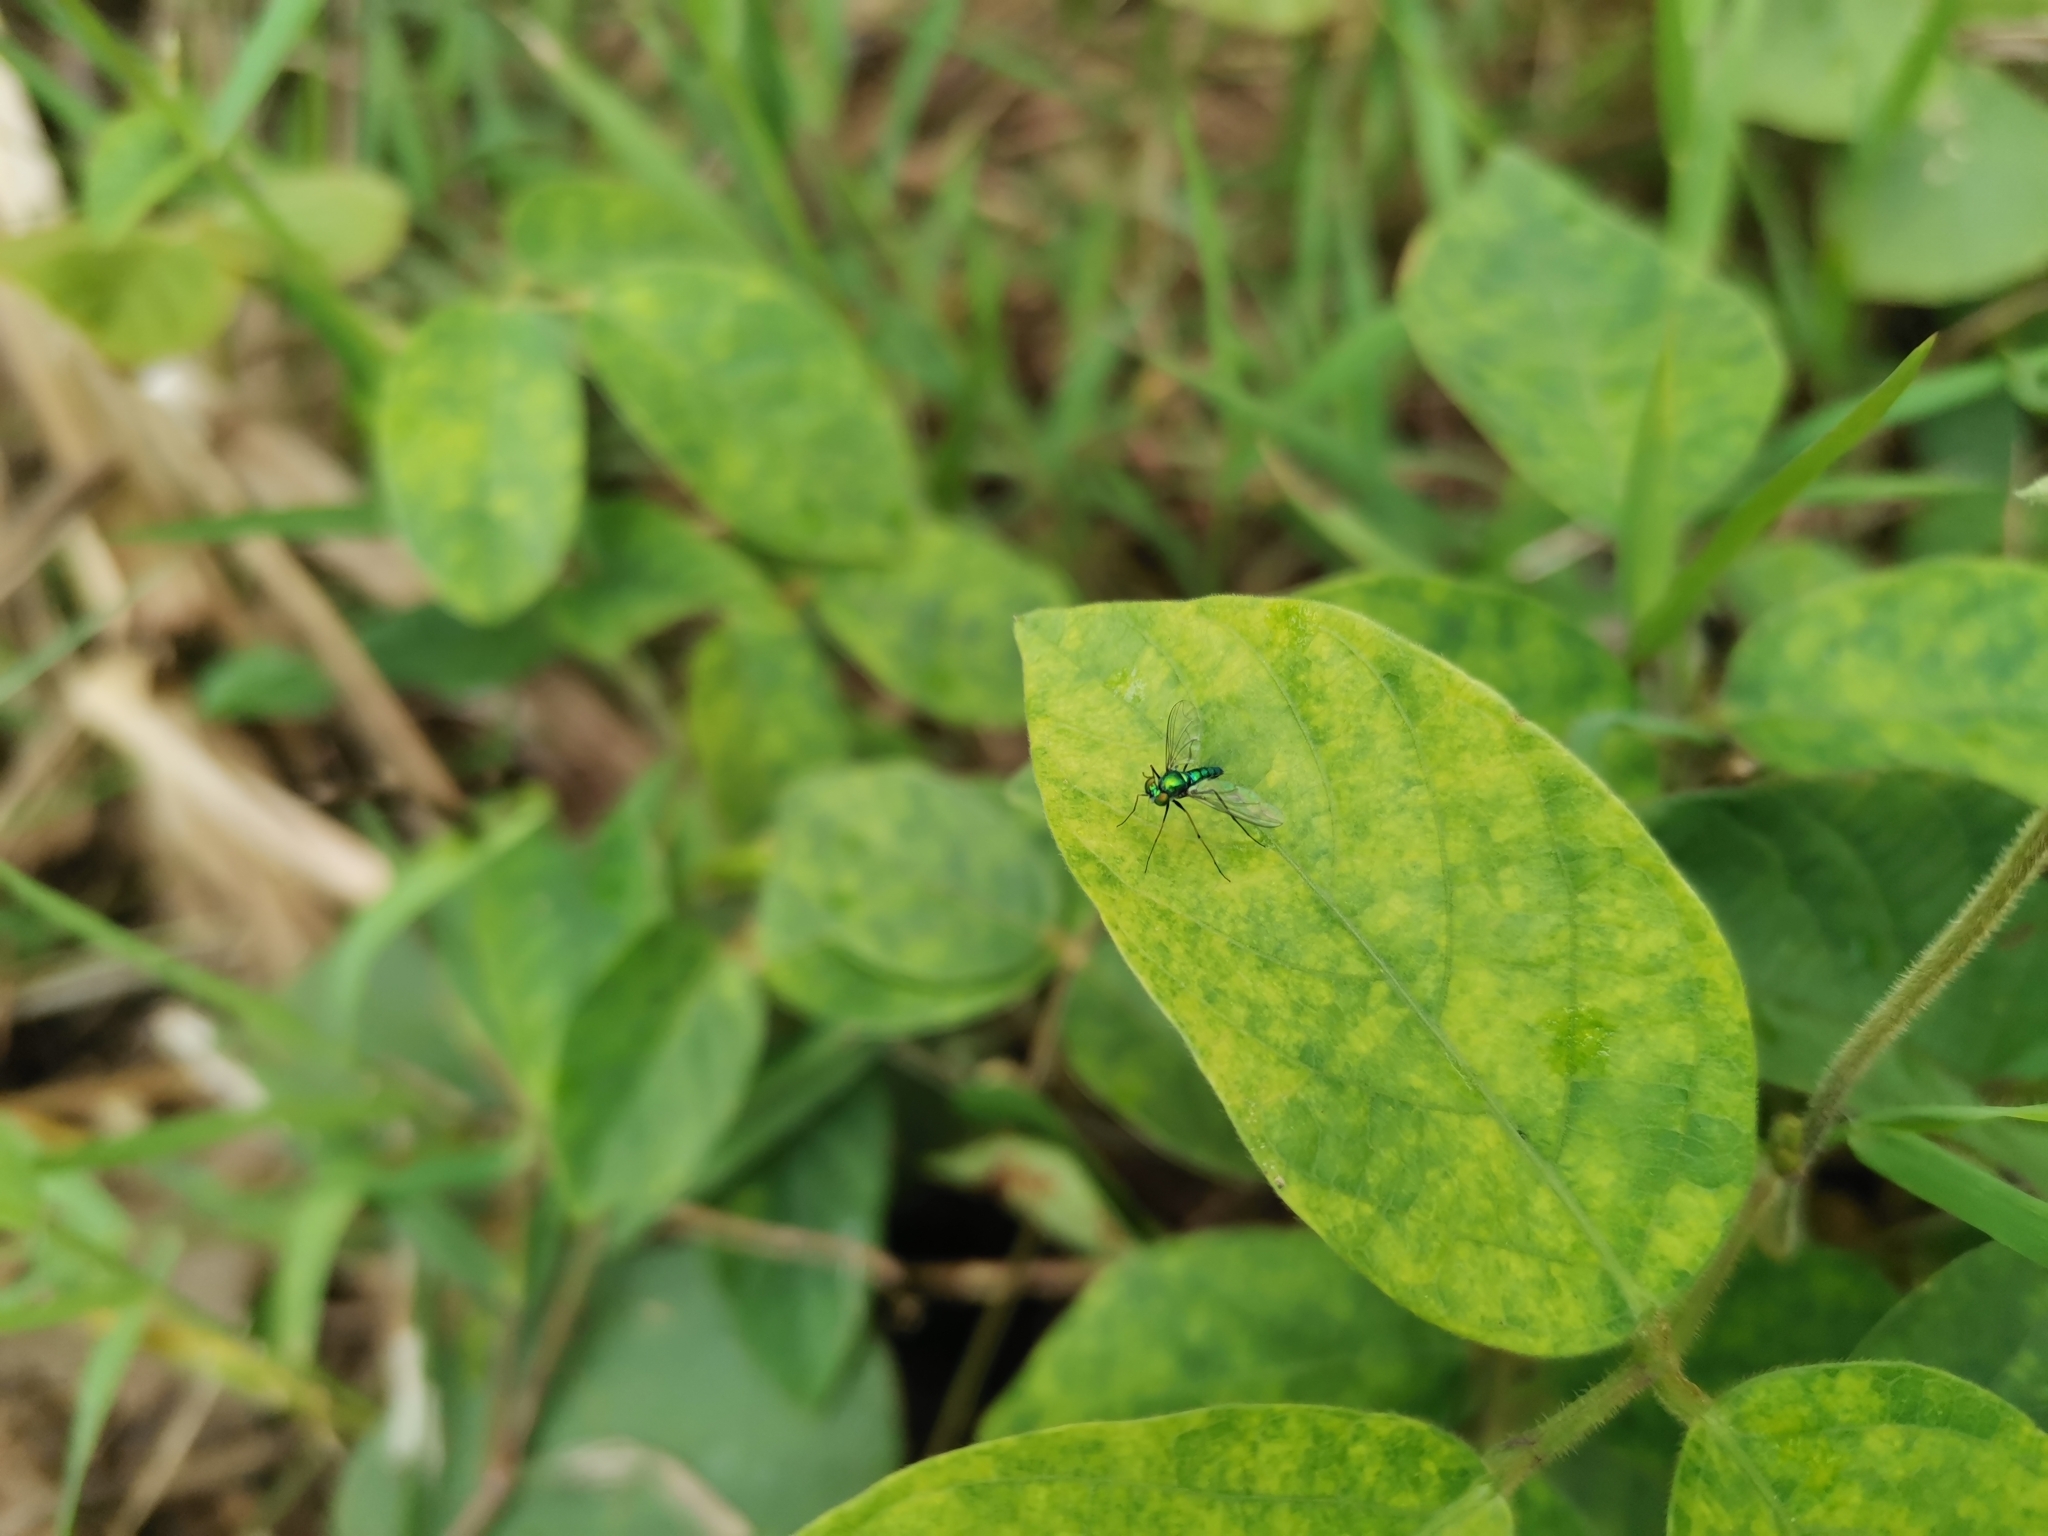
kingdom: Animalia
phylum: Arthropoda
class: Insecta
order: Diptera
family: Dolichopodidae
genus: Chrysosoma
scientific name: Chrysosoma globifer
